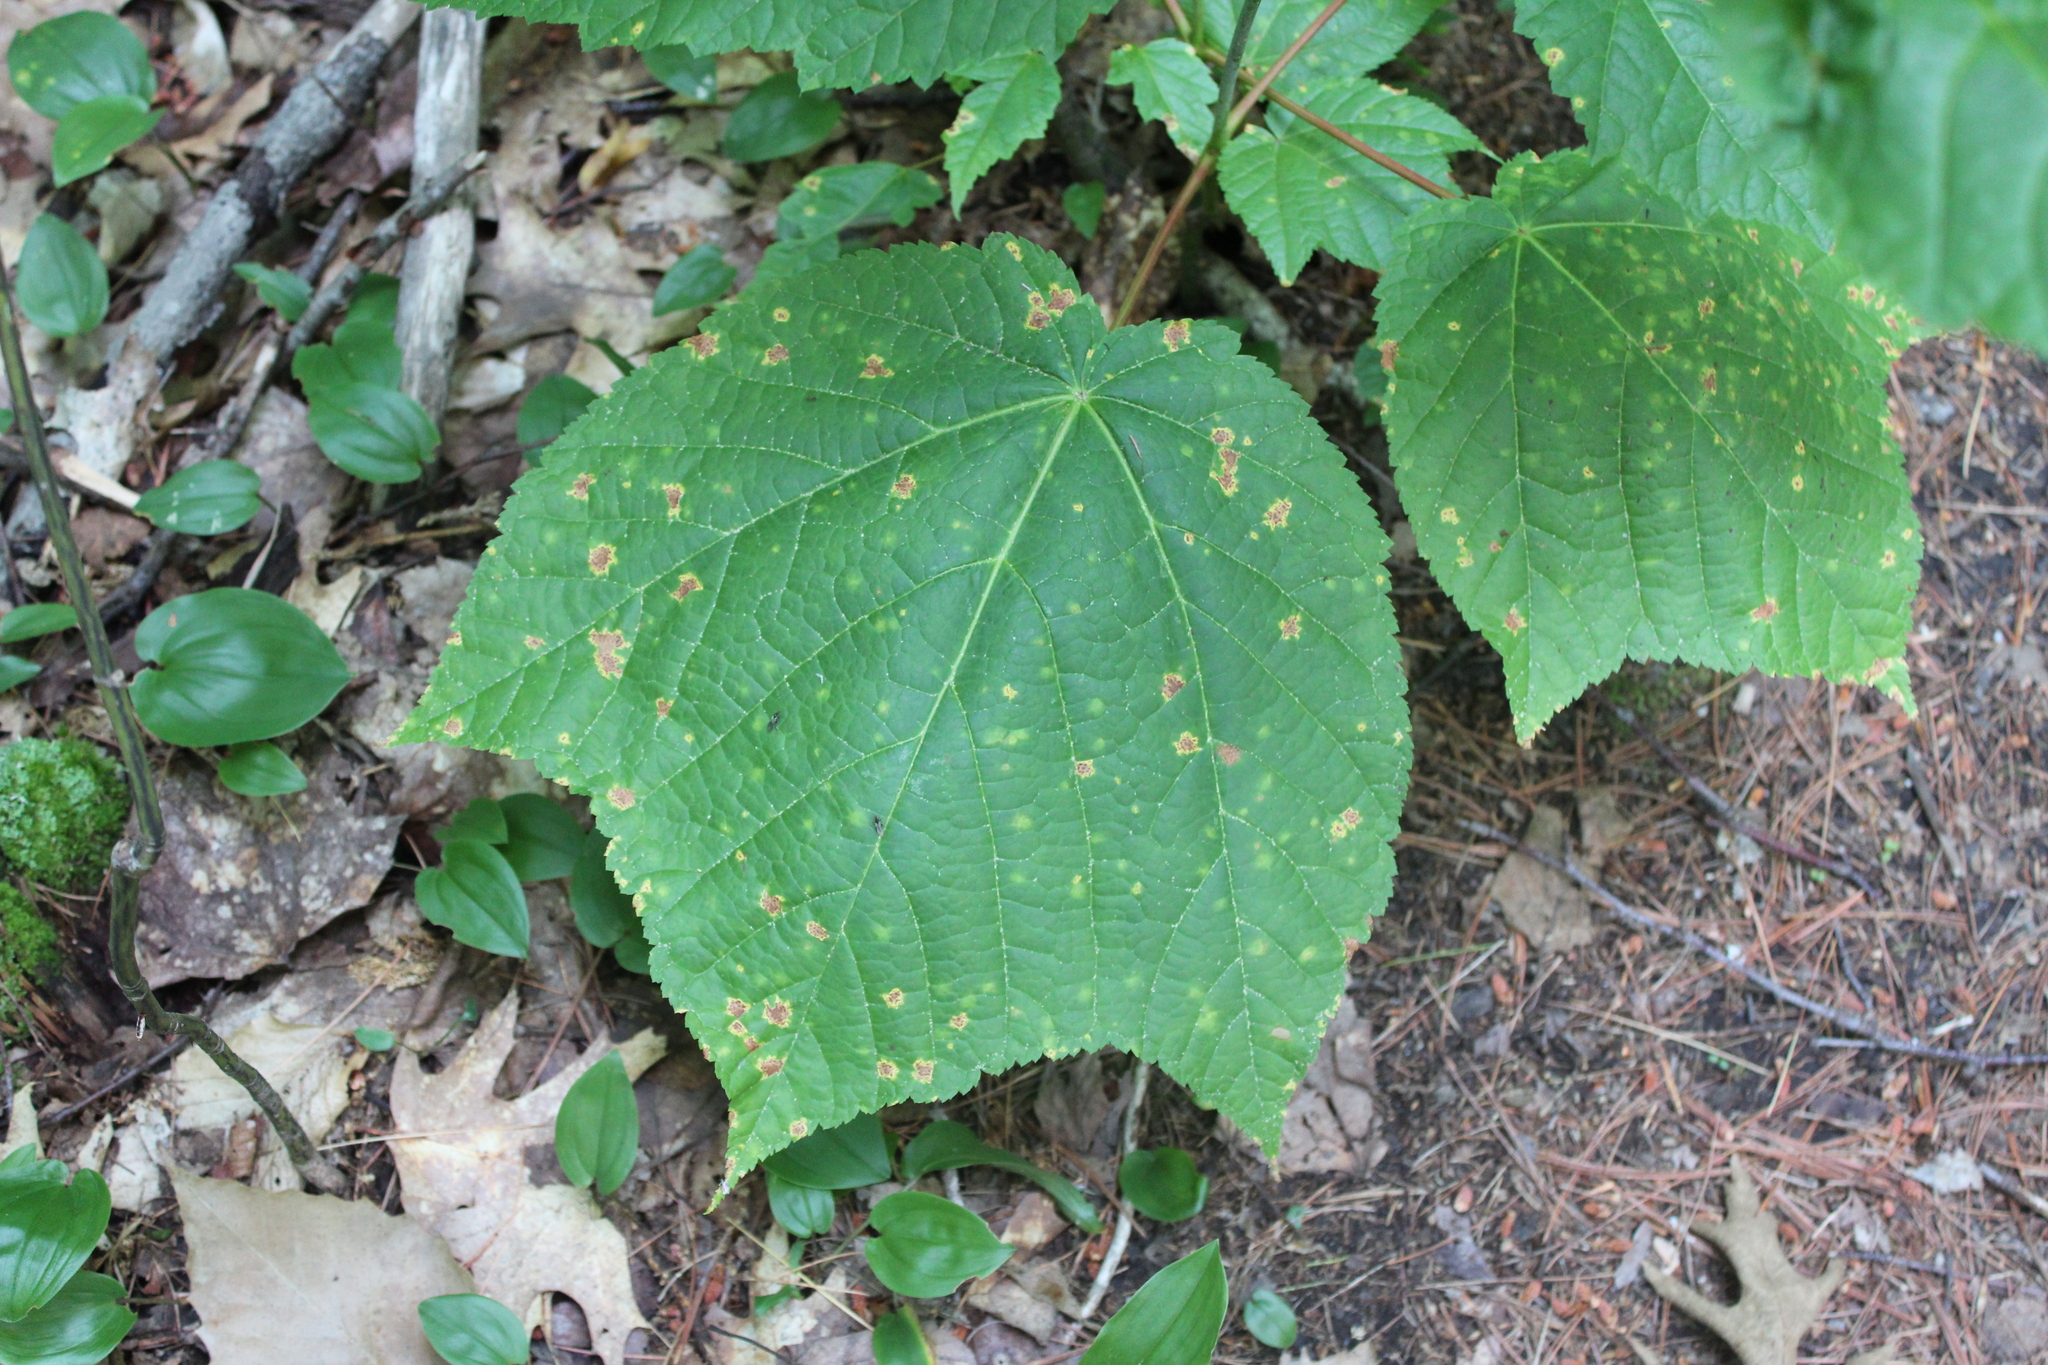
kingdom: Plantae
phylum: Tracheophyta
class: Magnoliopsida
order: Sapindales
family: Sapindaceae
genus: Acer
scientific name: Acer pensylvanicum
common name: Moosewood
